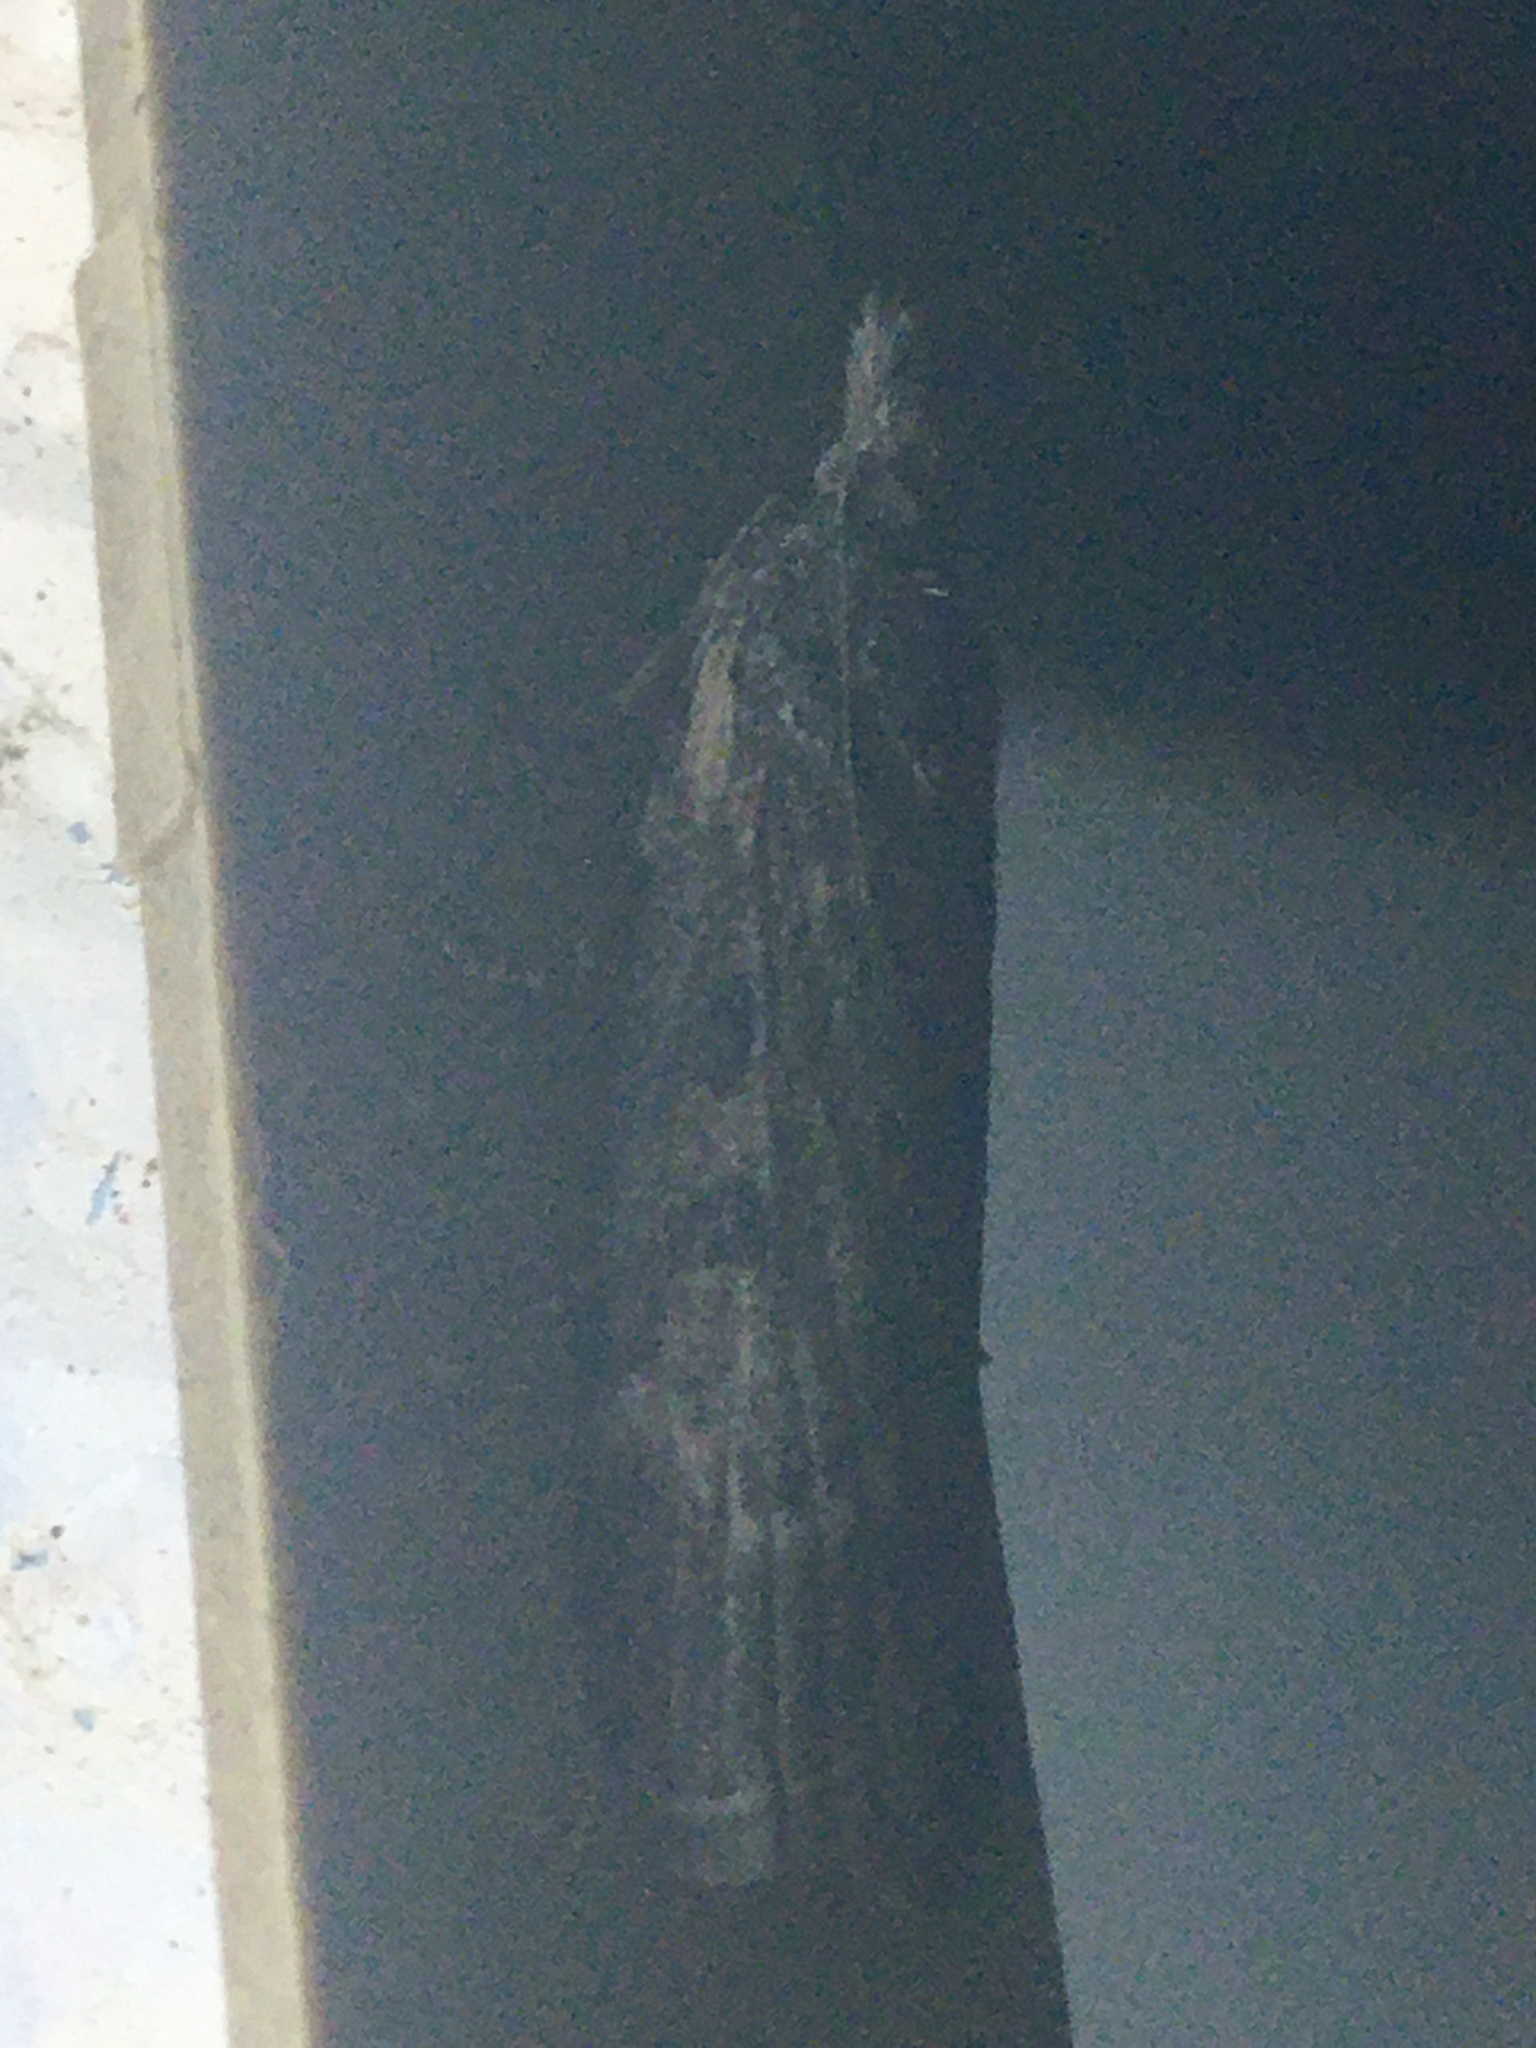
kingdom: Animalia
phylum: Arthropoda
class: Insecta
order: Lepidoptera
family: Pyralidae
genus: Lamoria
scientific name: Lamoria anella
